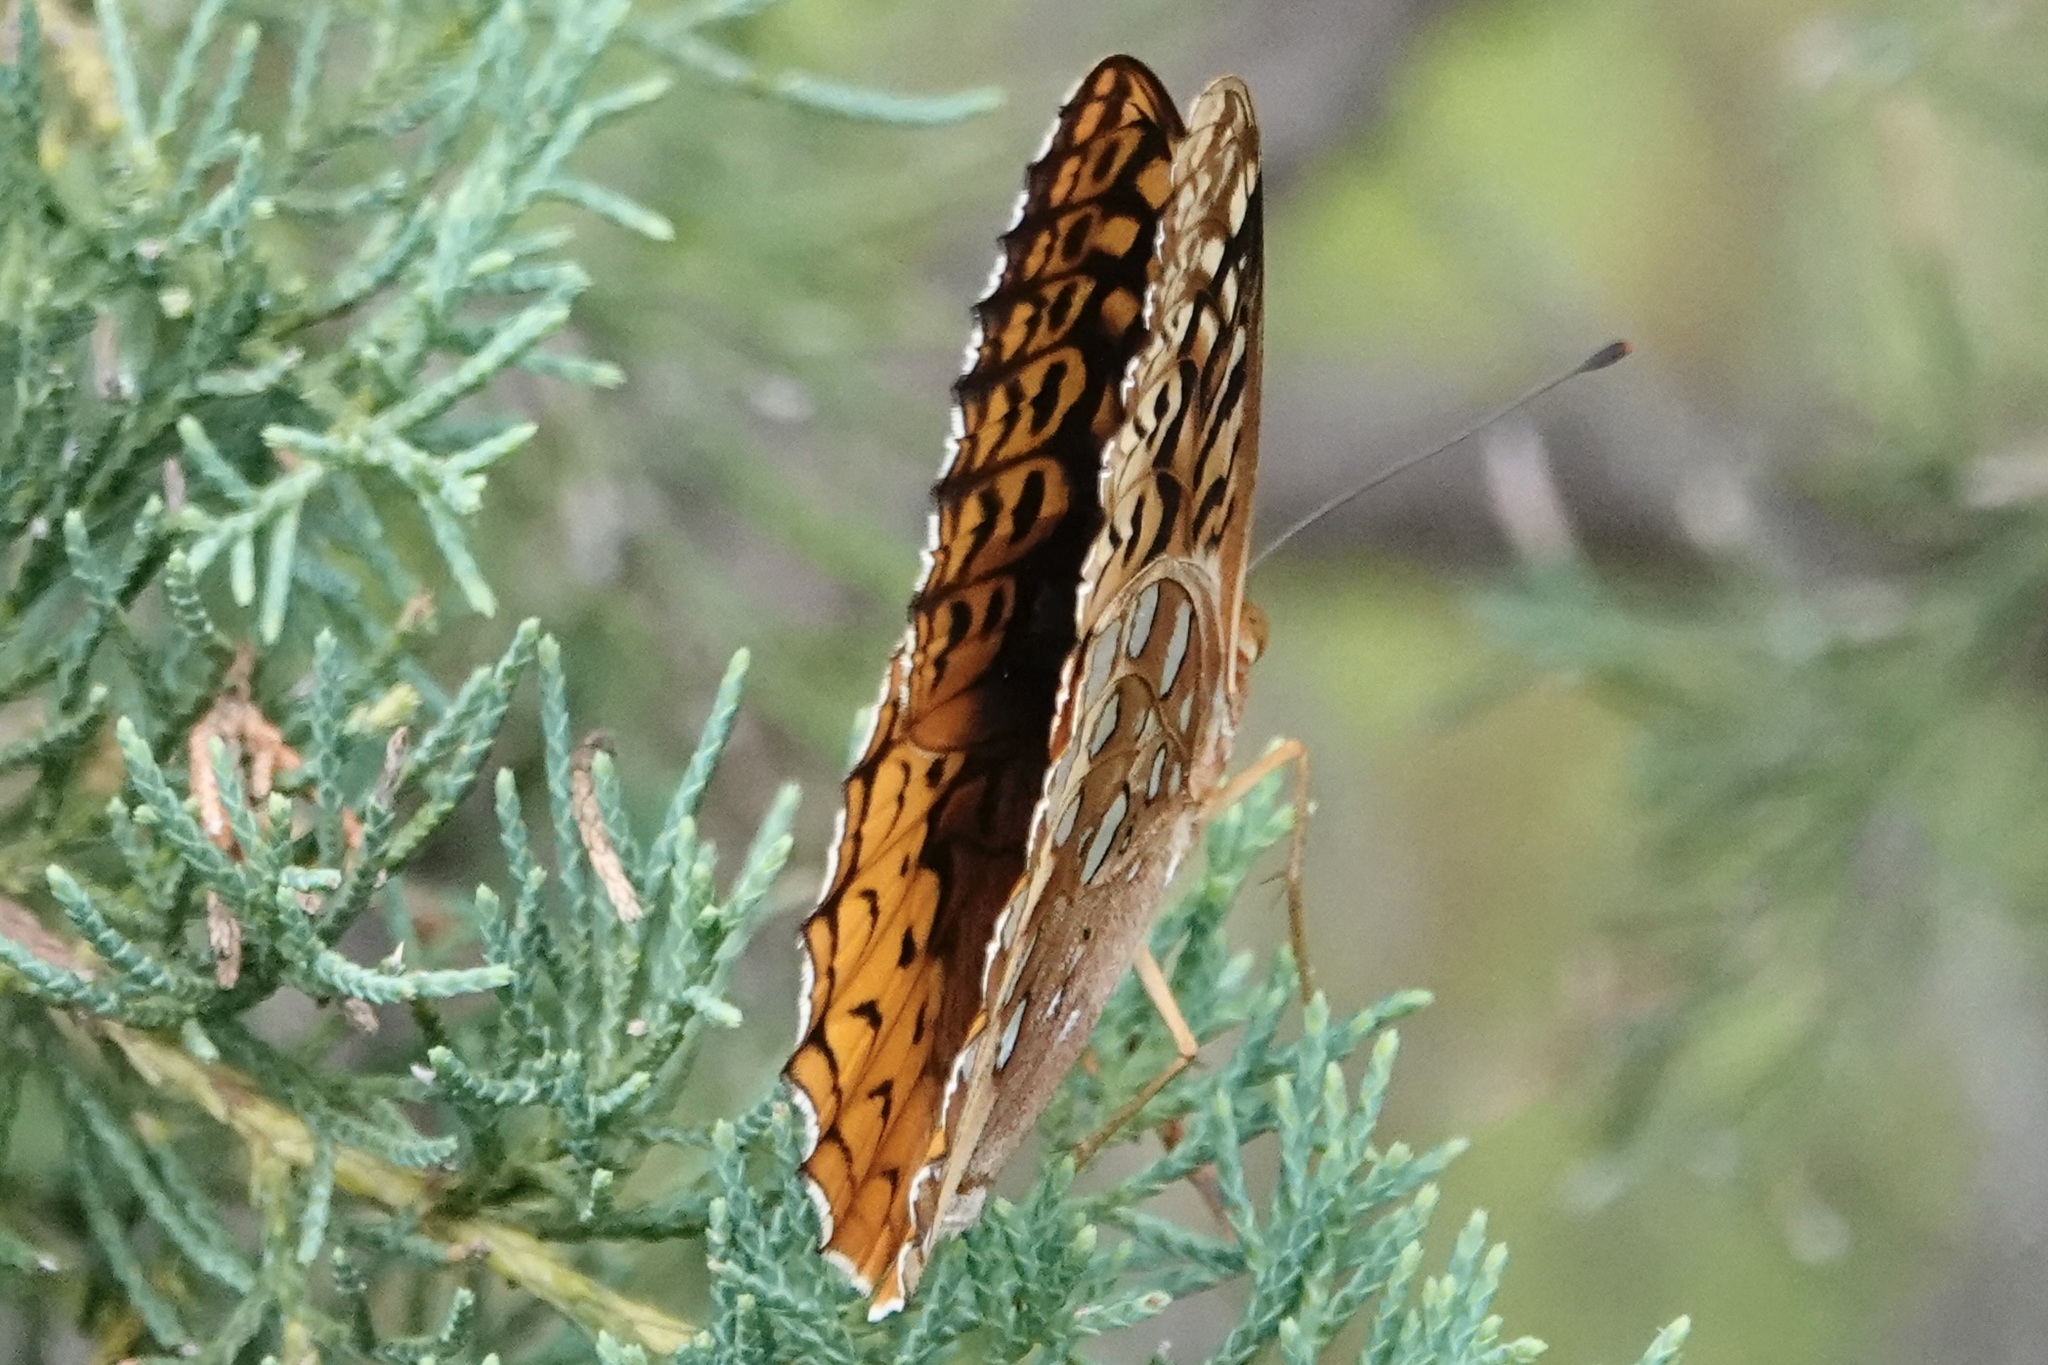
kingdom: Animalia
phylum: Arthropoda
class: Insecta
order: Lepidoptera
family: Nymphalidae
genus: Speyeria
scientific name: Speyeria cybele
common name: Great spangled fritillary
